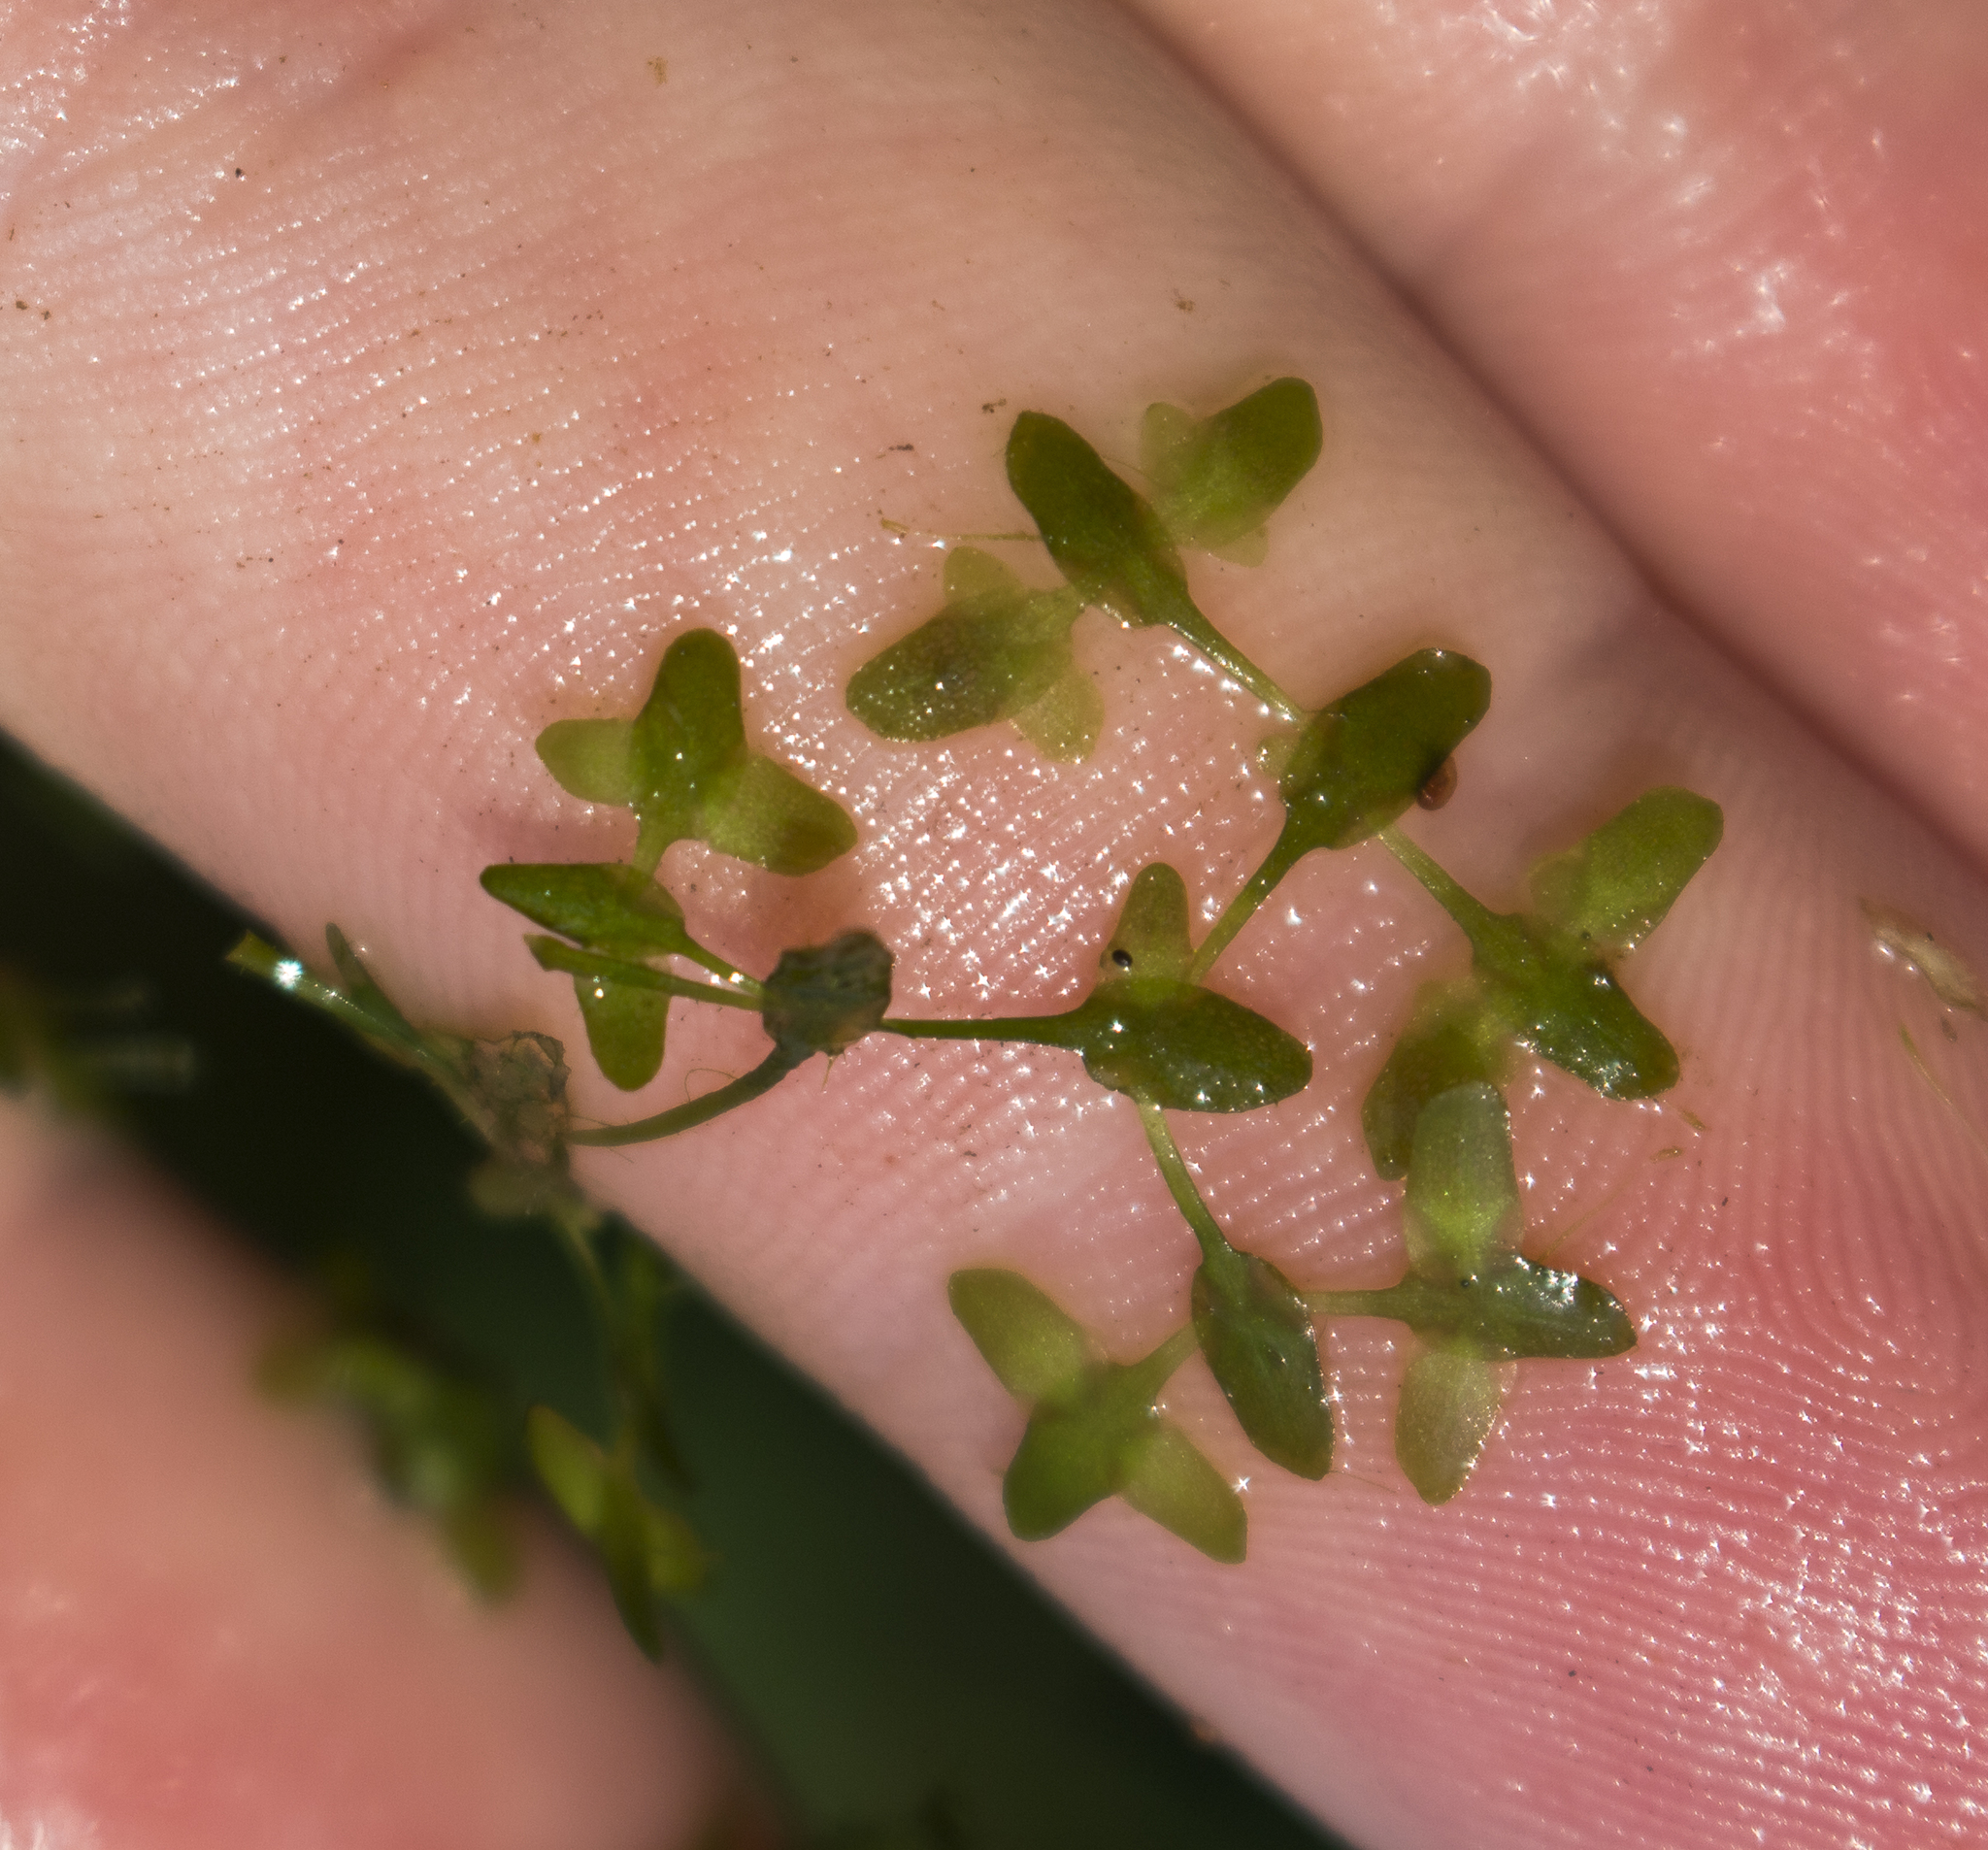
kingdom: Plantae
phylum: Tracheophyta
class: Liliopsida
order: Alismatales
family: Araceae
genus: Lemna
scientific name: Lemna trisulca
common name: Ivy-leaved duckweed
